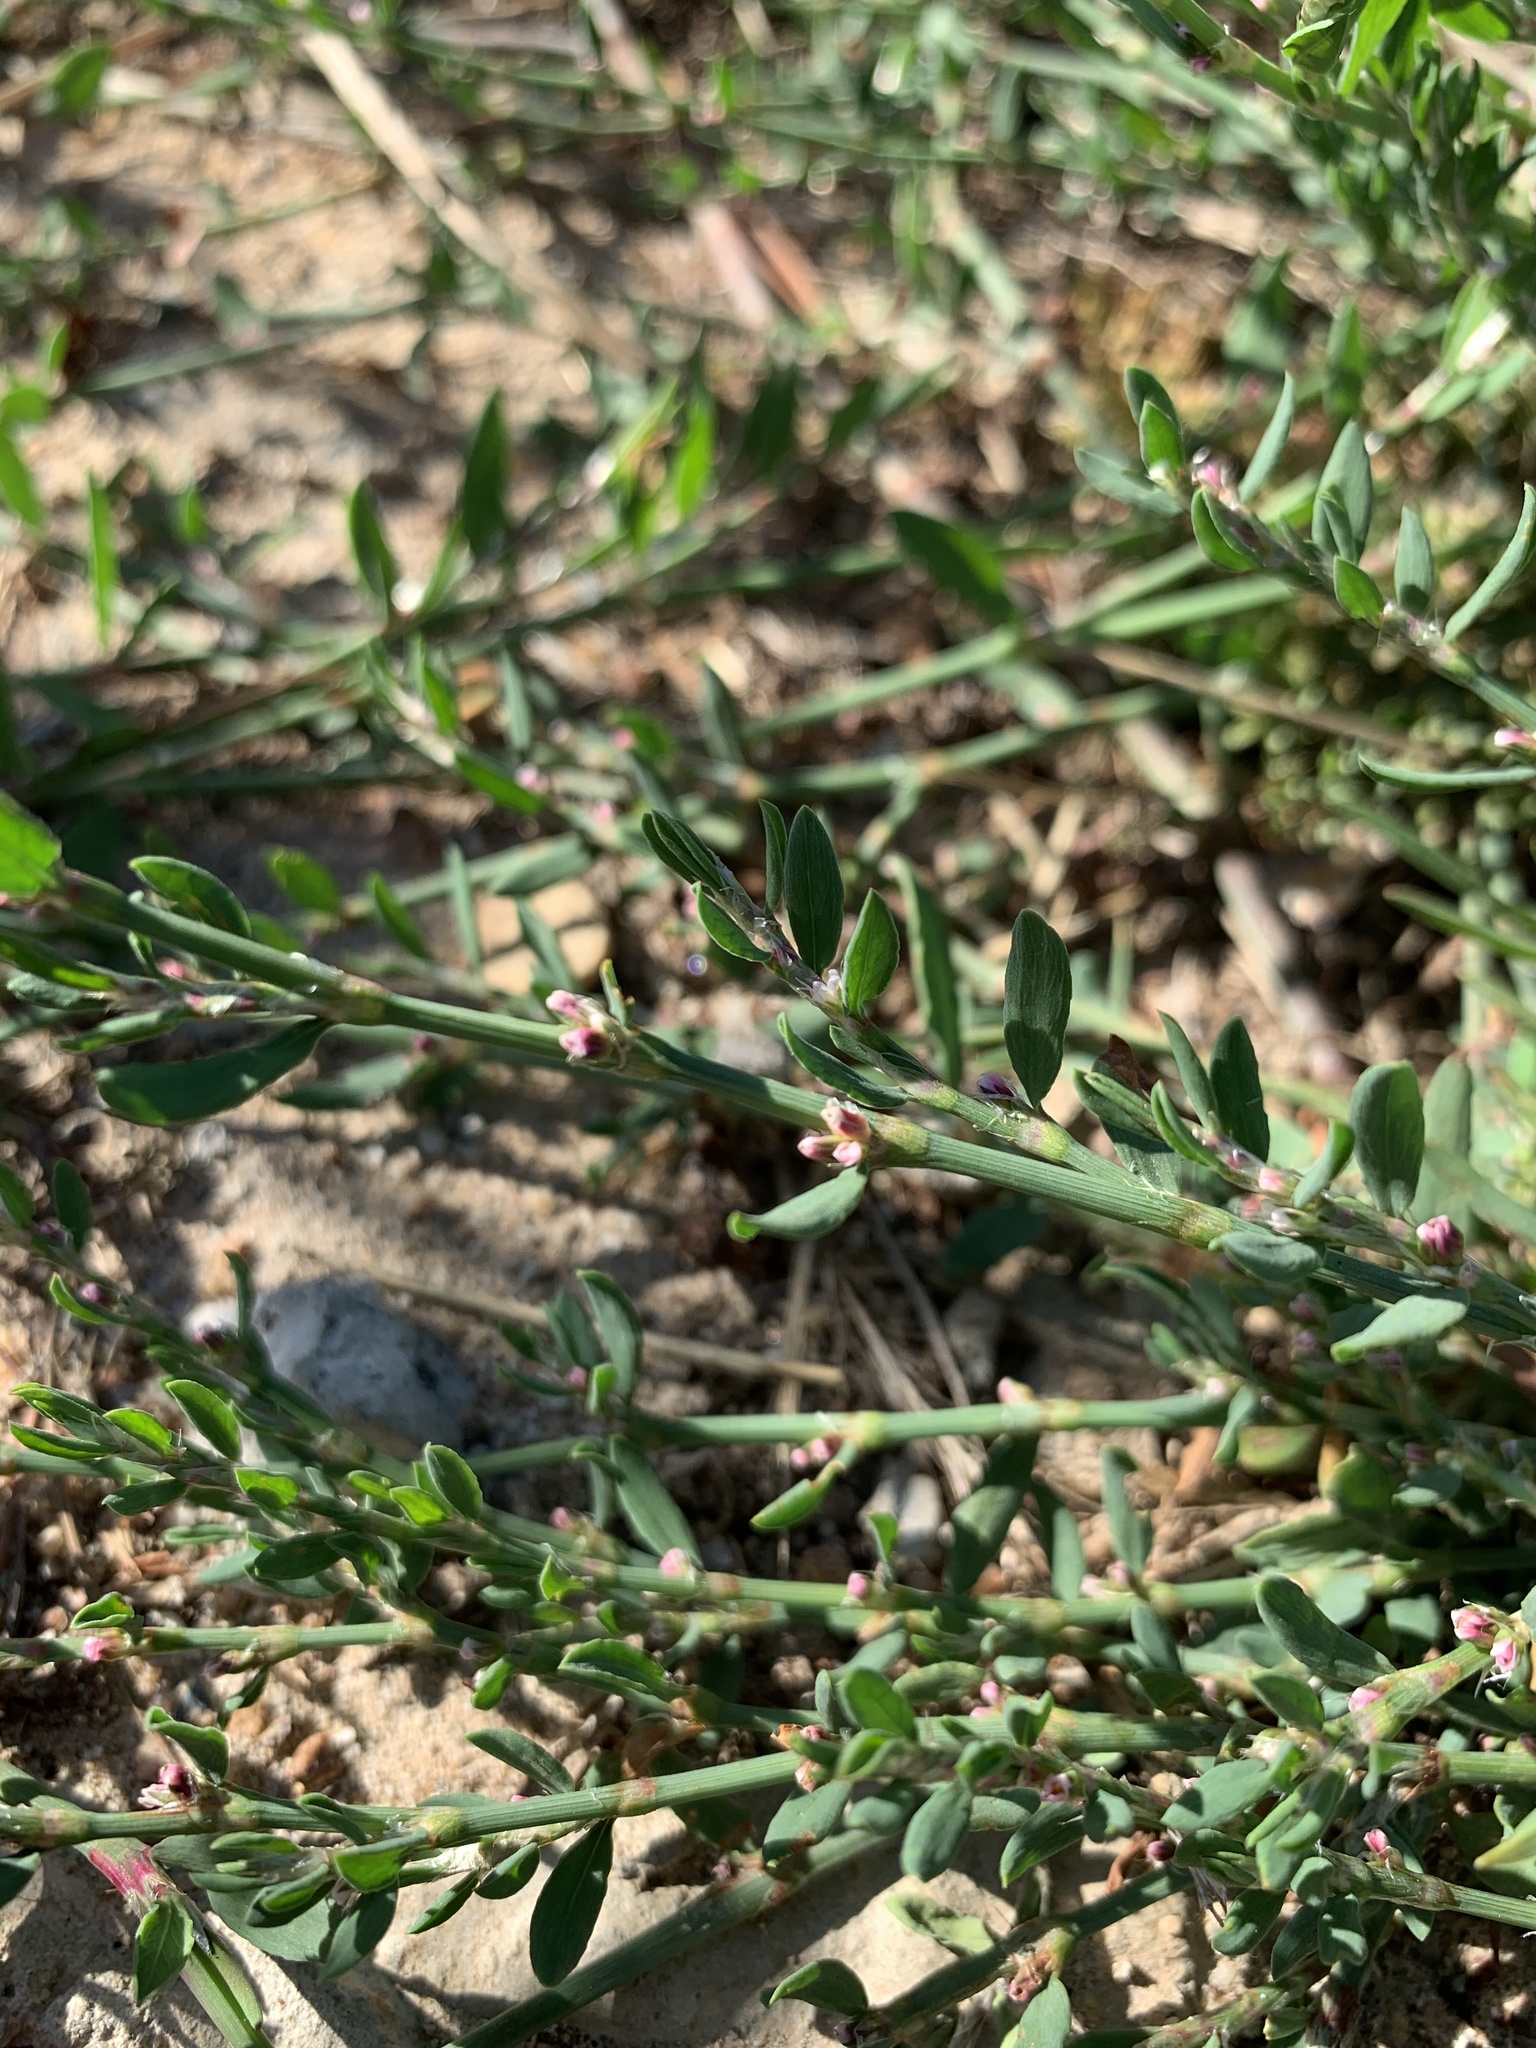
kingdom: Plantae
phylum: Tracheophyta
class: Magnoliopsida
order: Caryophyllales
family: Polygonaceae
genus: Polygonum
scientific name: Polygonum aviculare
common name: Prostrate knotweed
